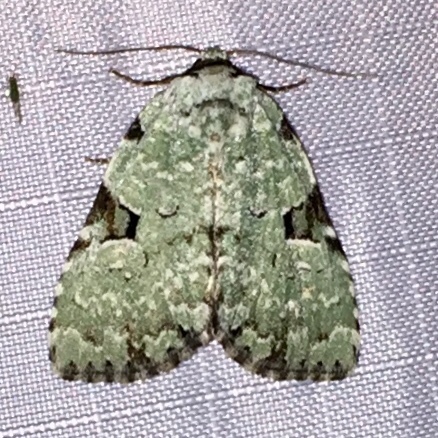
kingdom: Animalia
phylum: Arthropoda
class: Insecta
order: Lepidoptera
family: Noctuidae
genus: Leuconycta
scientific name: Leuconycta diphteroides
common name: Green leuconycta moth
